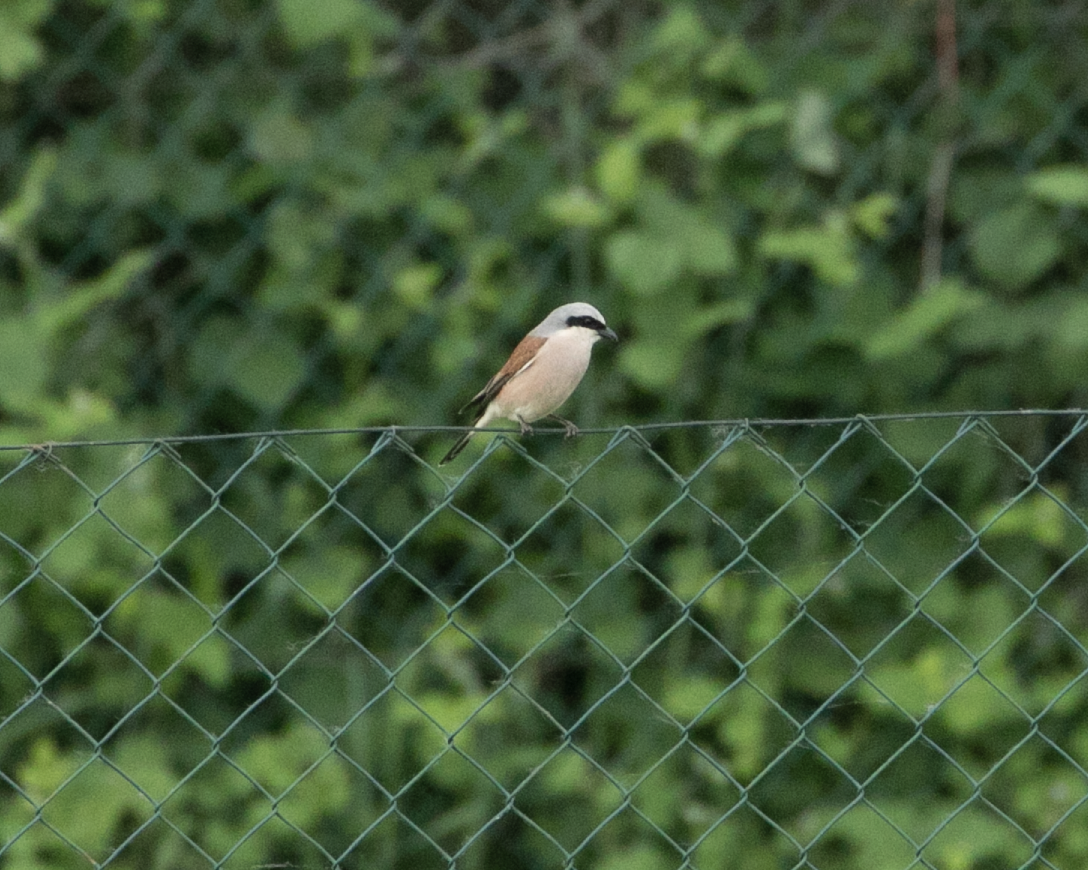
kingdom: Animalia
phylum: Chordata
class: Aves
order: Passeriformes
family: Laniidae
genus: Lanius
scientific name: Lanius collurio
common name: Red-backed shrike
